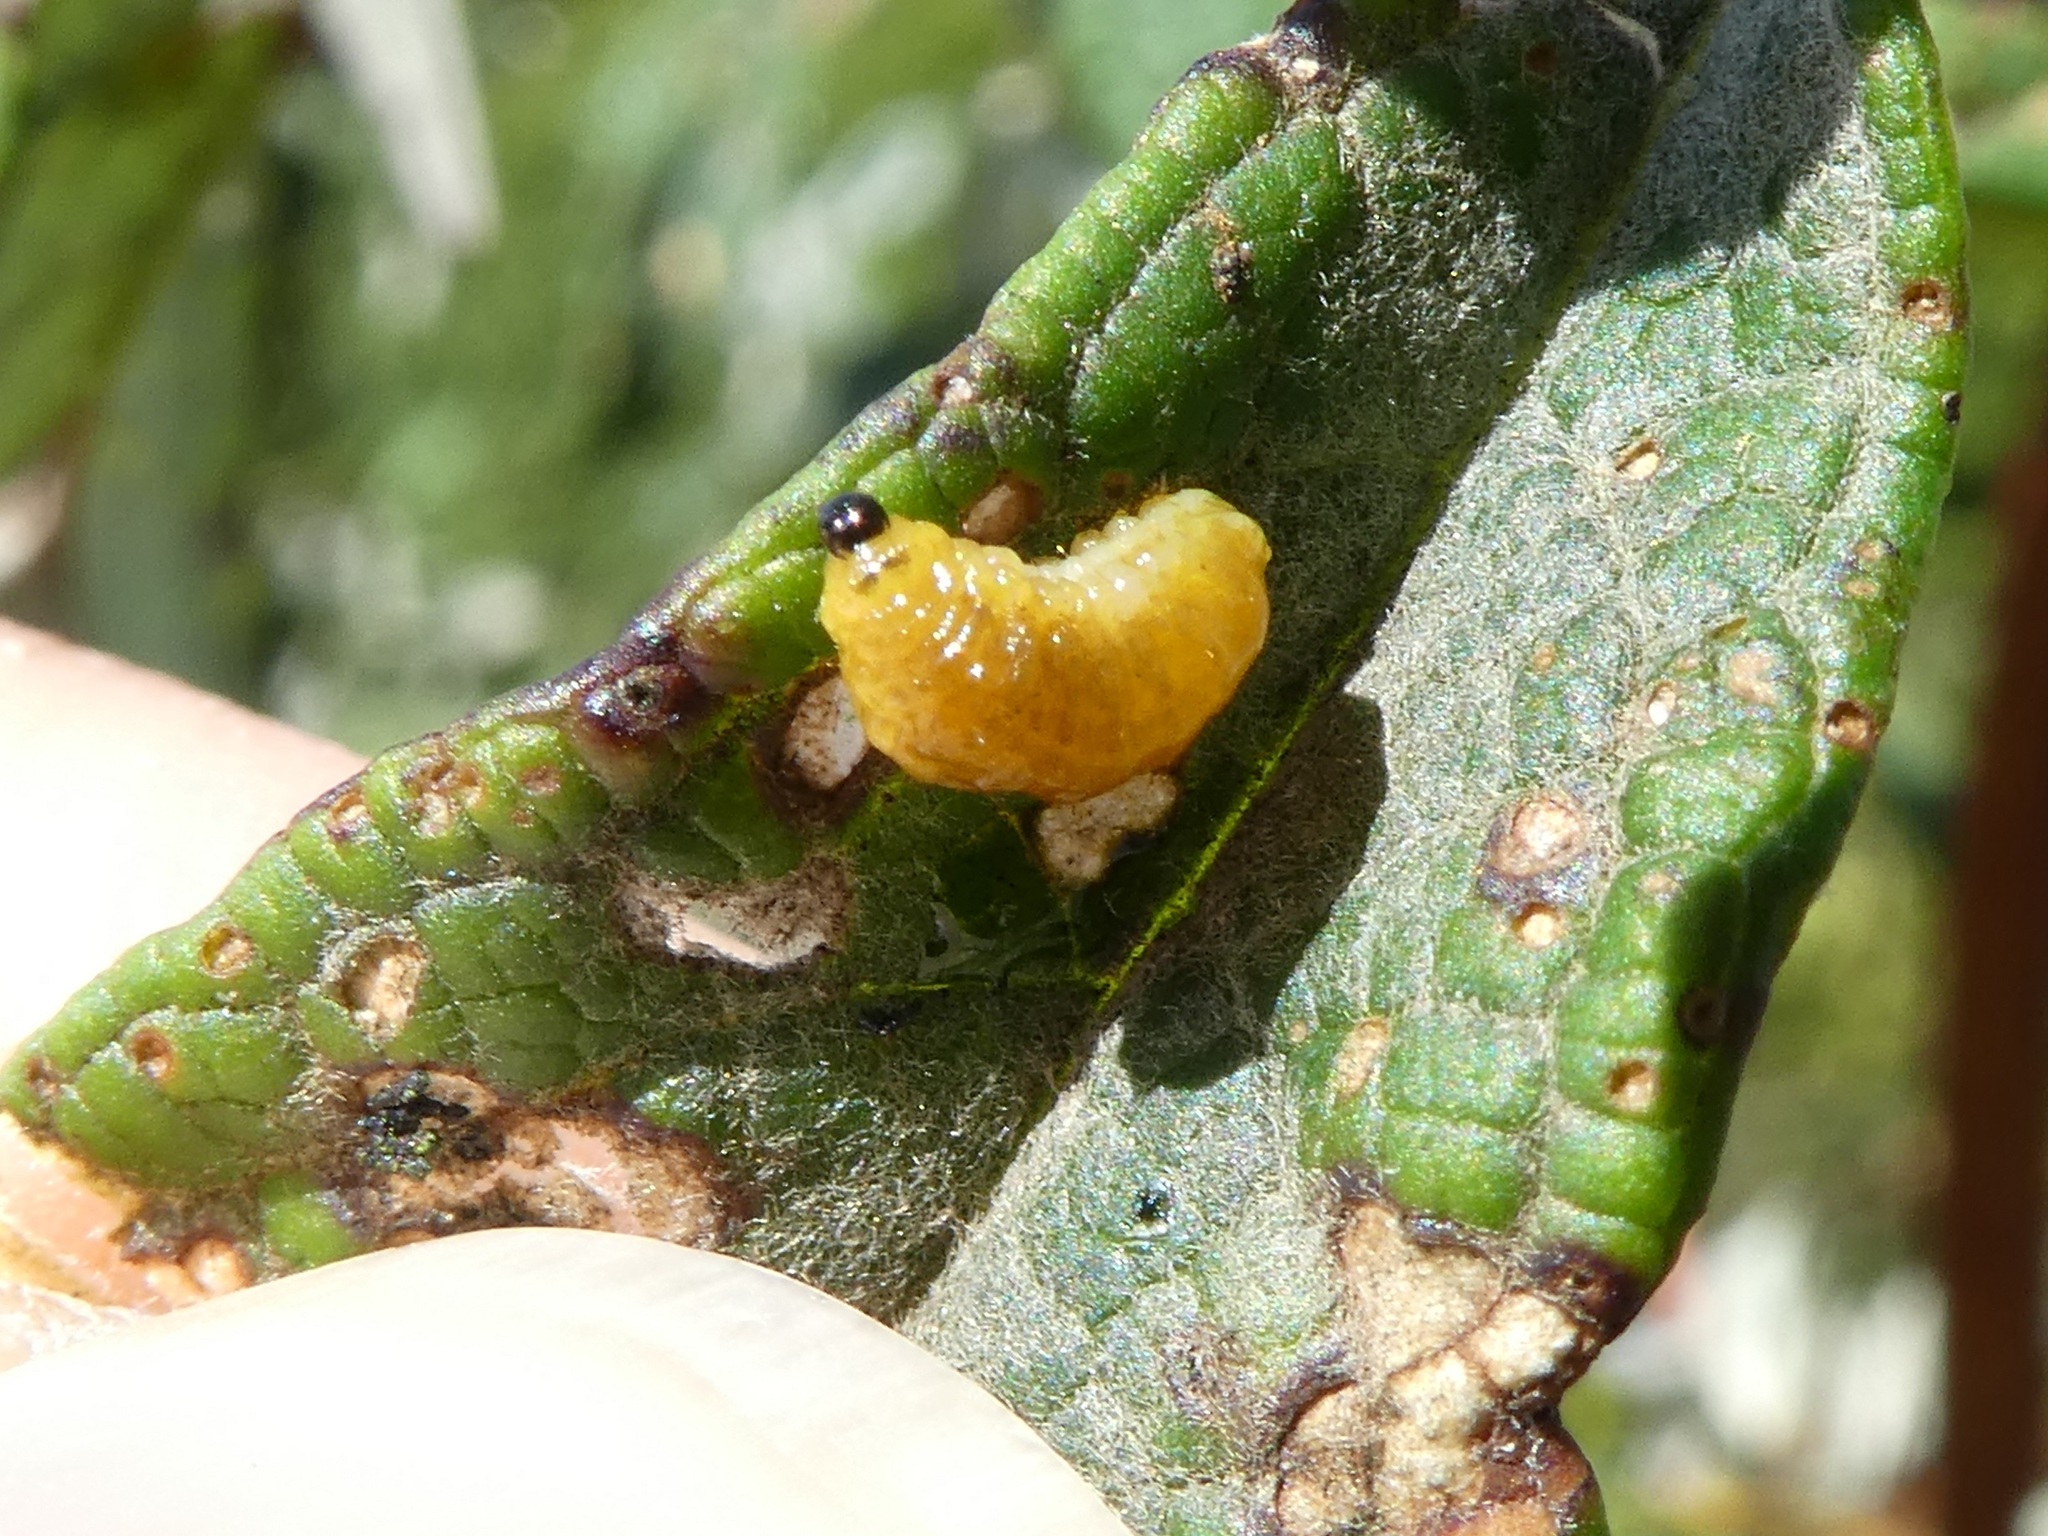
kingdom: Animalia
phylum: Arthropoda
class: Insecta
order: Coleoptera
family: Curculionidae
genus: Cleopus
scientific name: Cleopus japonicus
